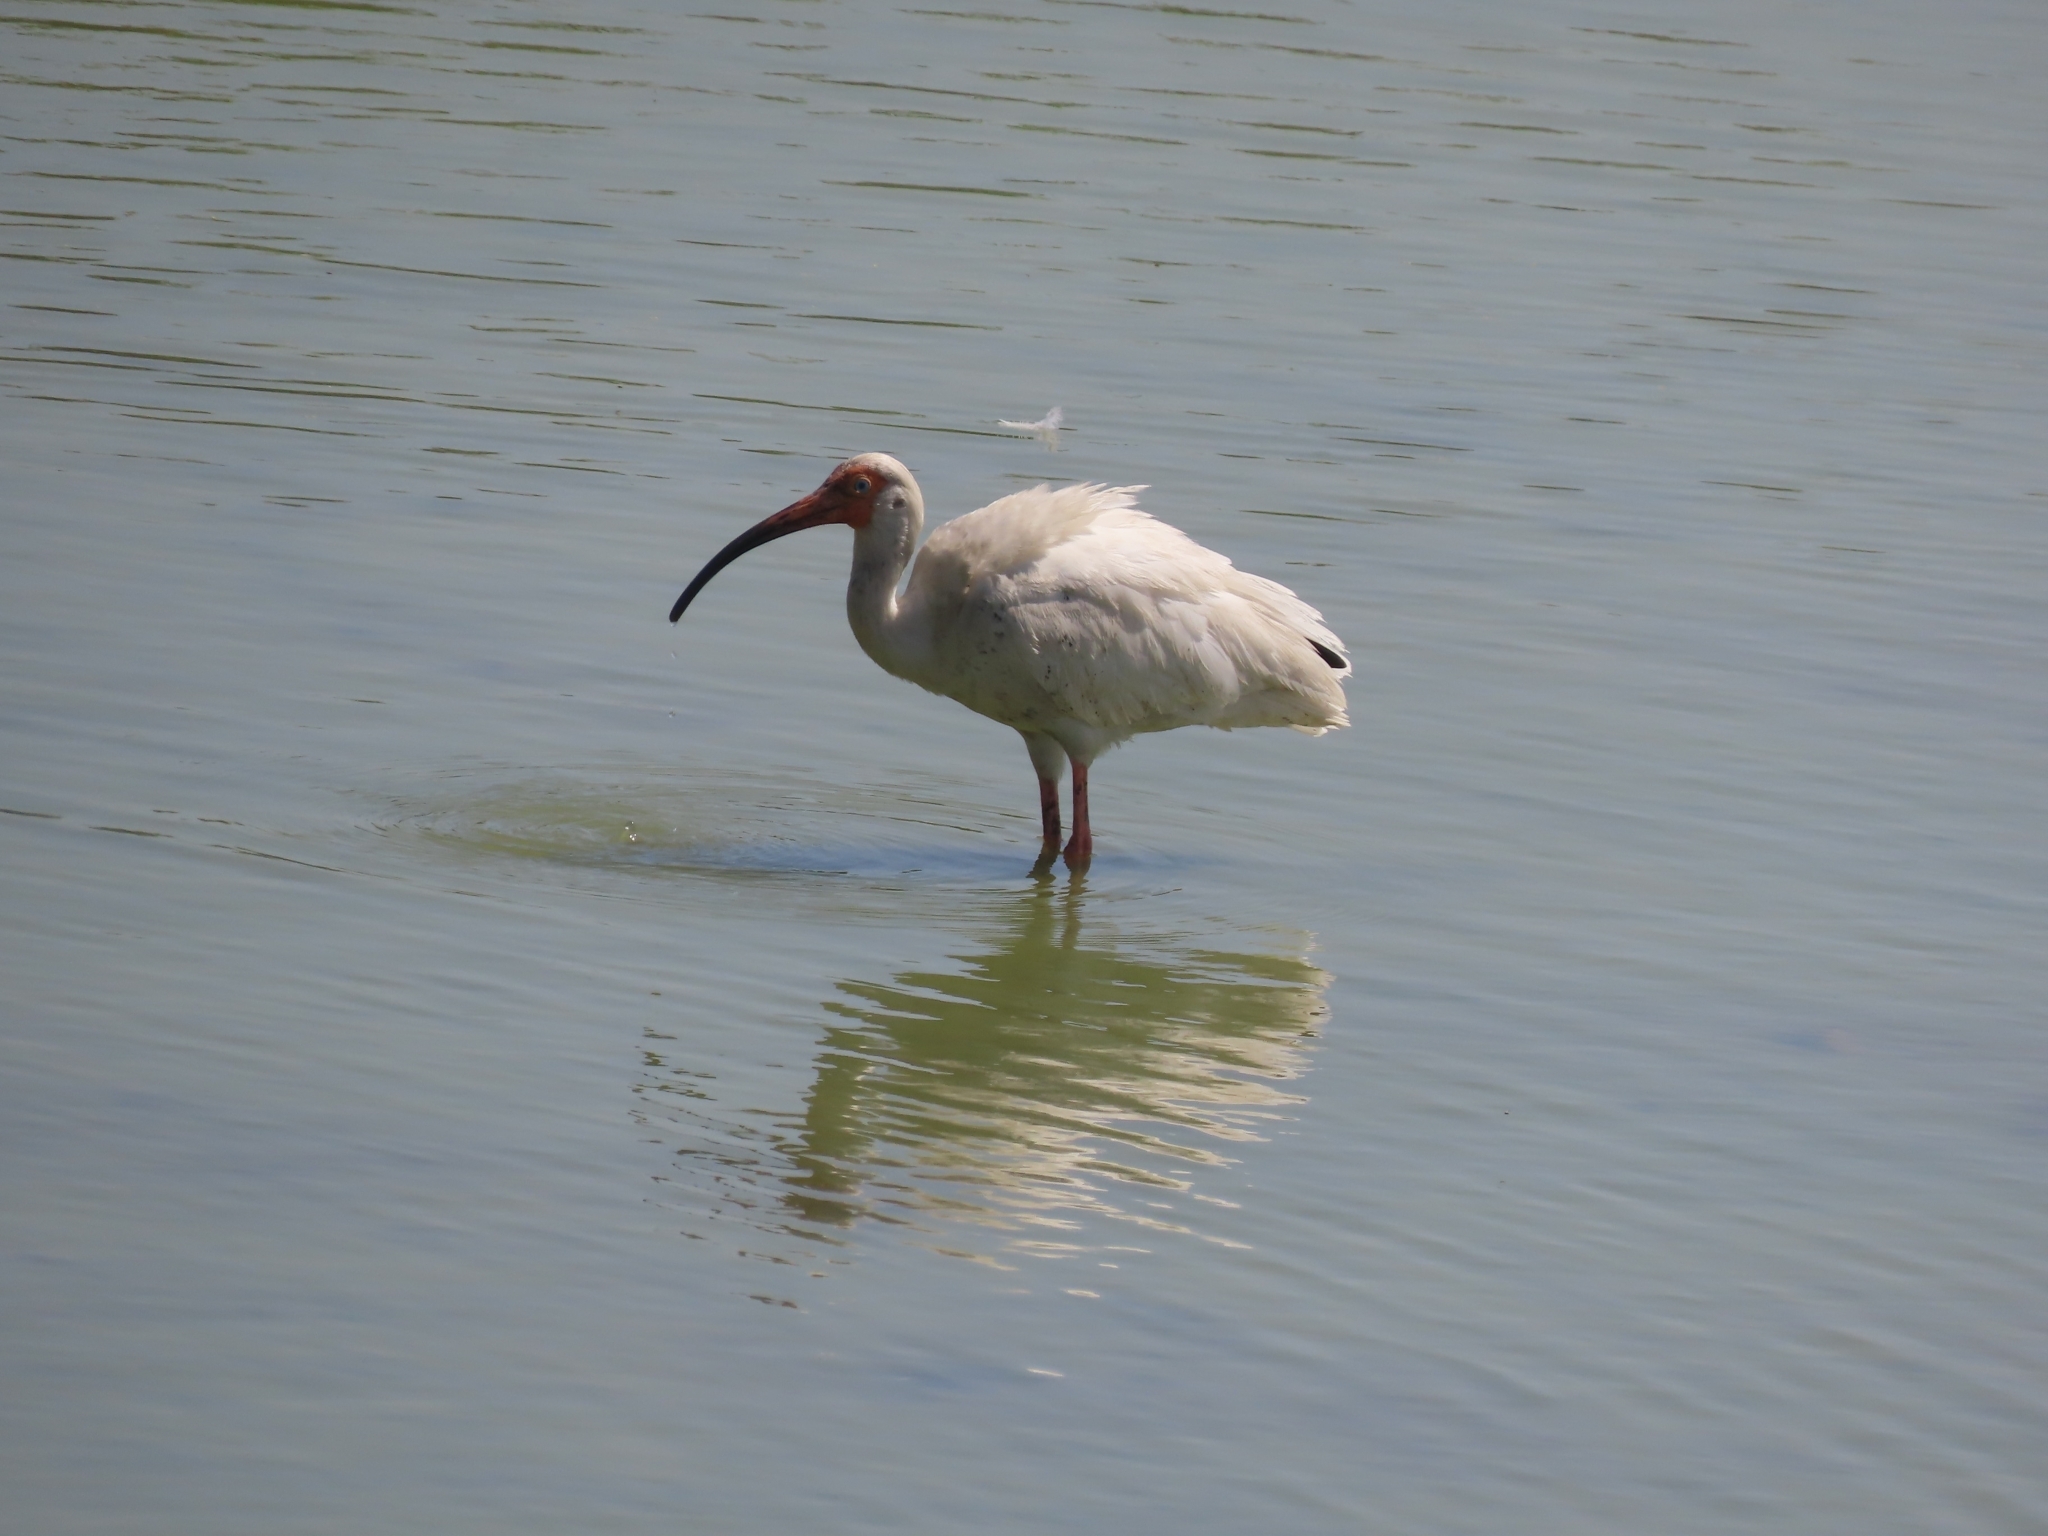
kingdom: Animalia
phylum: Chordata
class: Aves
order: Pelecaniformes
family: Threskiornithidae
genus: Eudocimus
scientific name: Eudocimus albus
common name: White ibis
